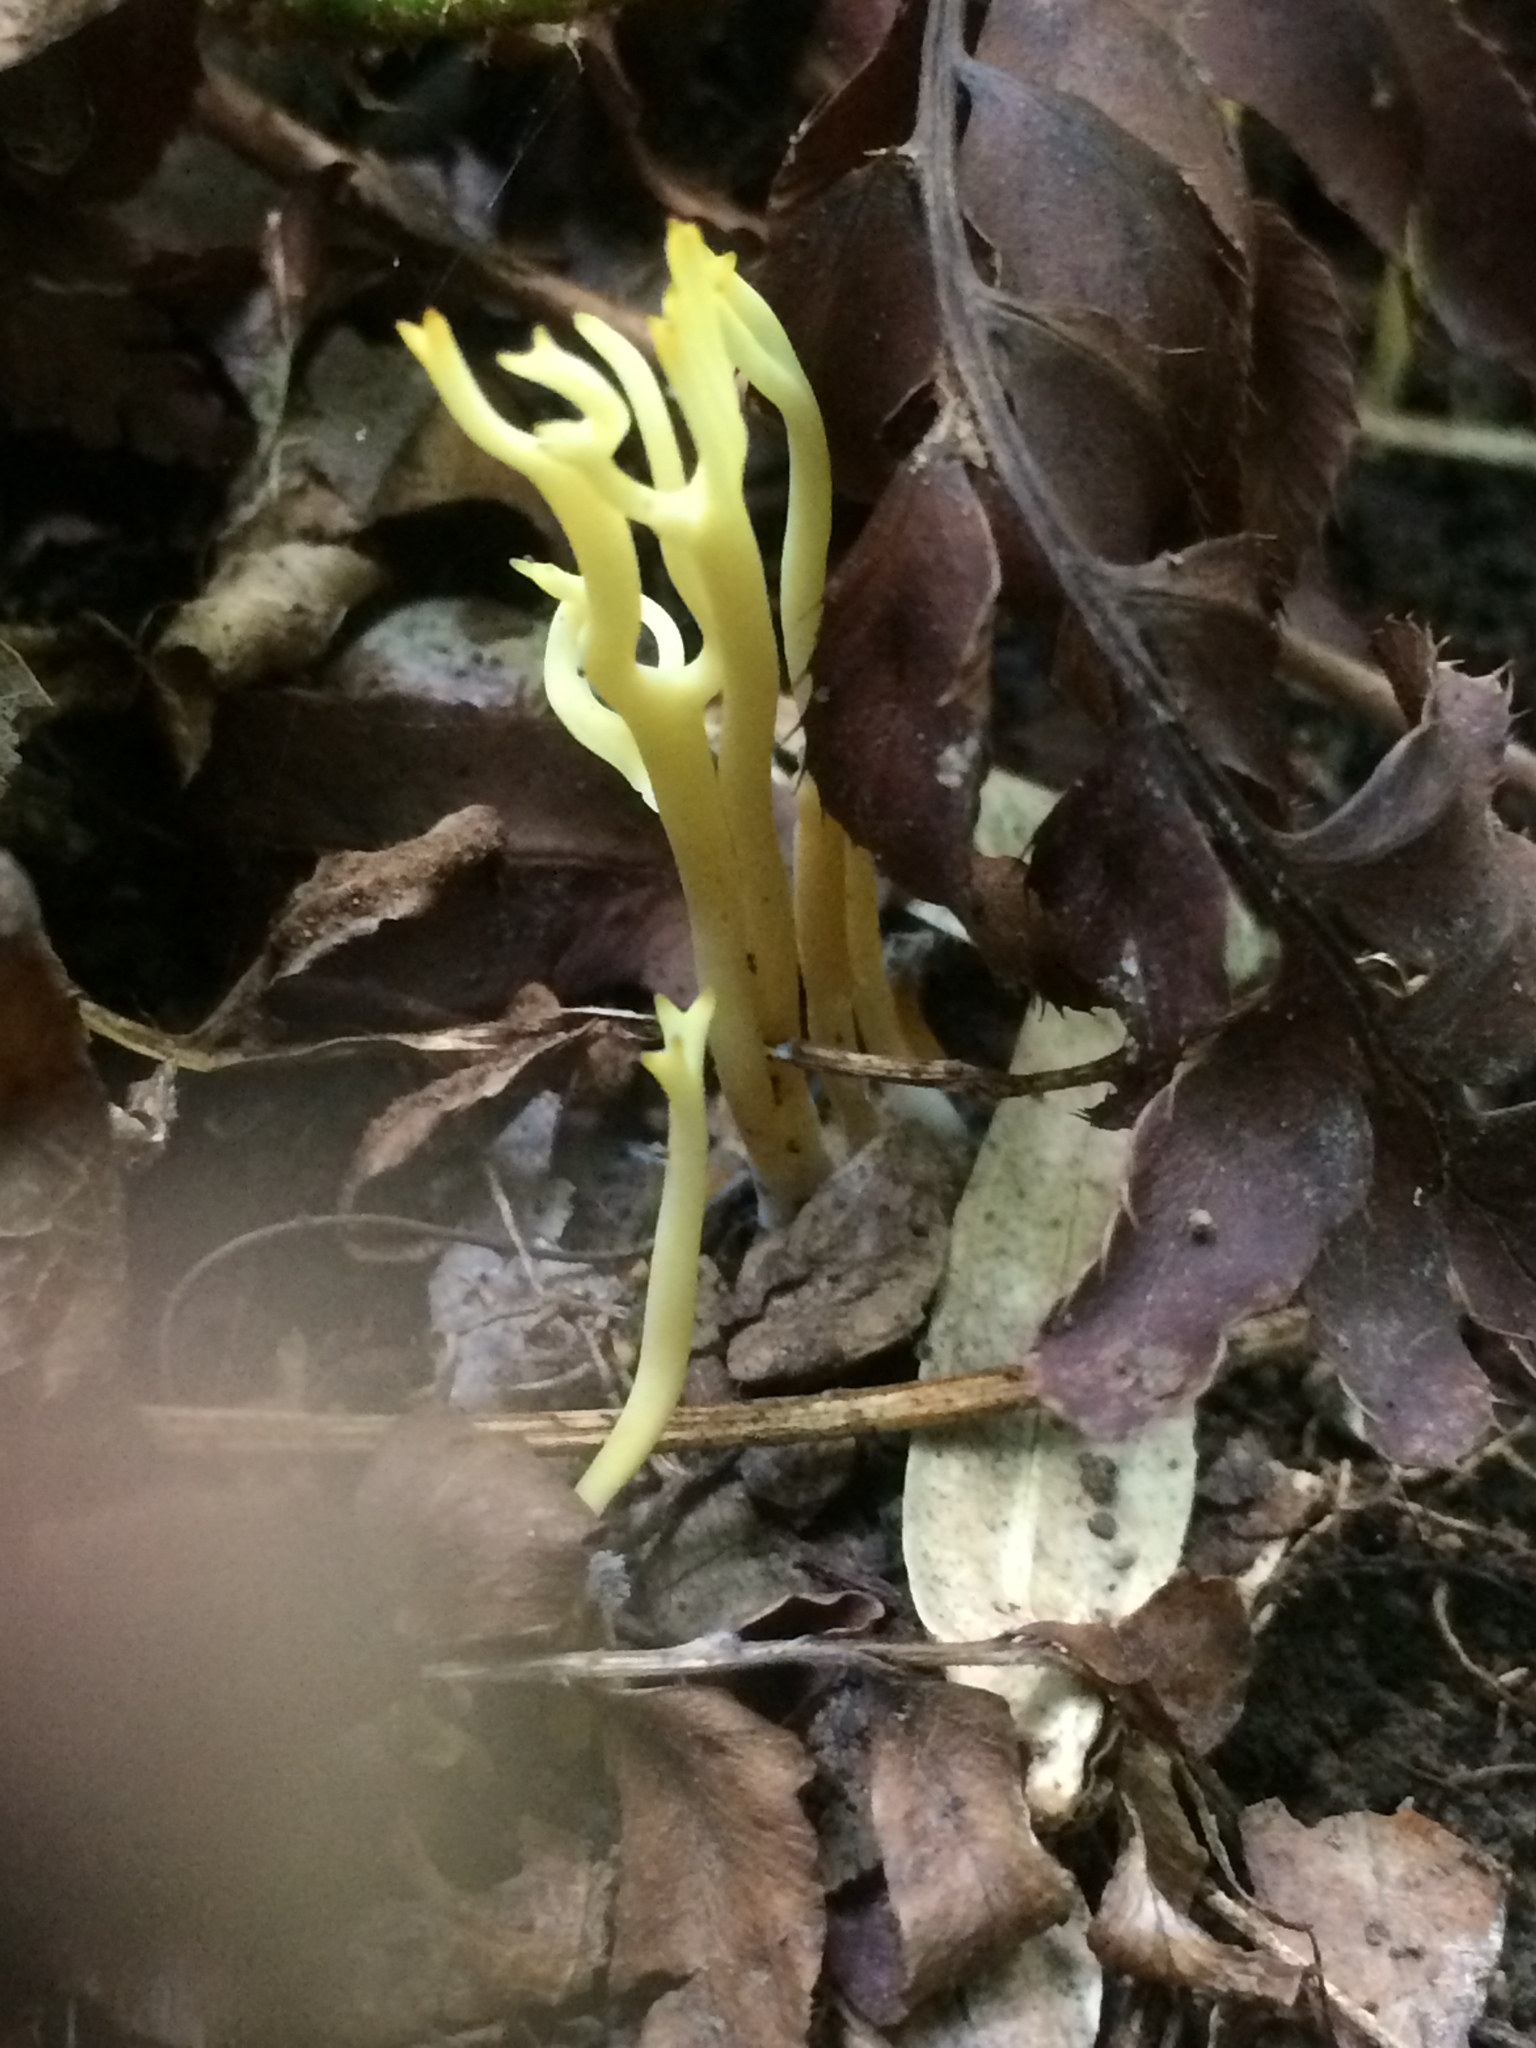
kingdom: Fungi
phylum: Basidiomycota
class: Agaricomycetes
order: Agaricales
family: Clavariaceae
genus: Clavulinopsis
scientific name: Clavulinopsis corniculata
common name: Meadow coral
